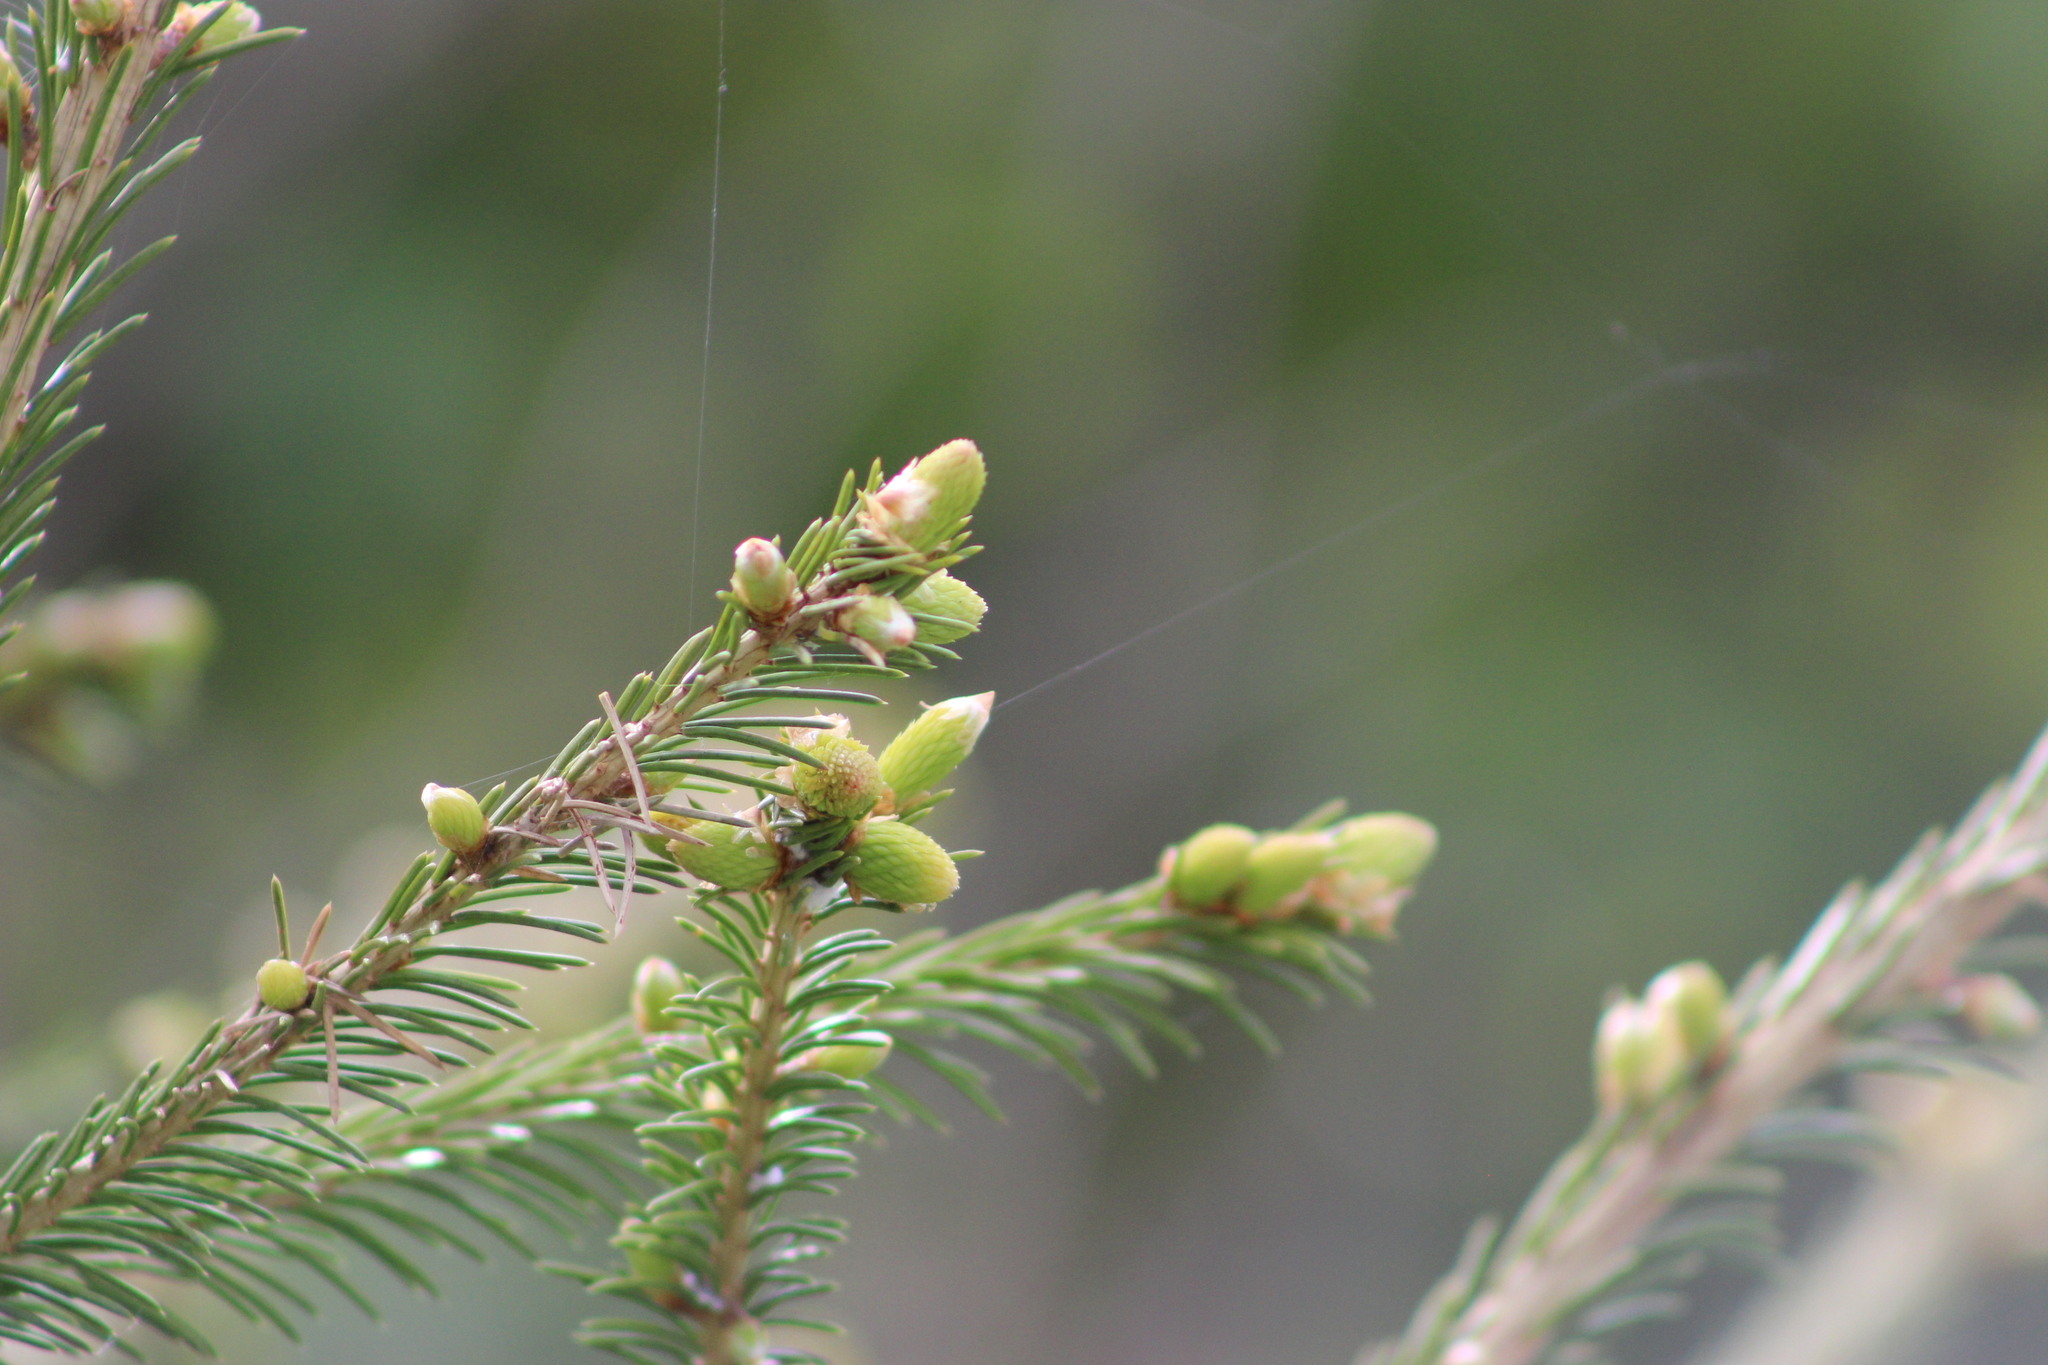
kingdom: Plantae
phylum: Tracheophyta
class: Pinopsida
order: Pinales
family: Pinaceae
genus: Picea
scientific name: Picea obovata
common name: Siberian spruce
